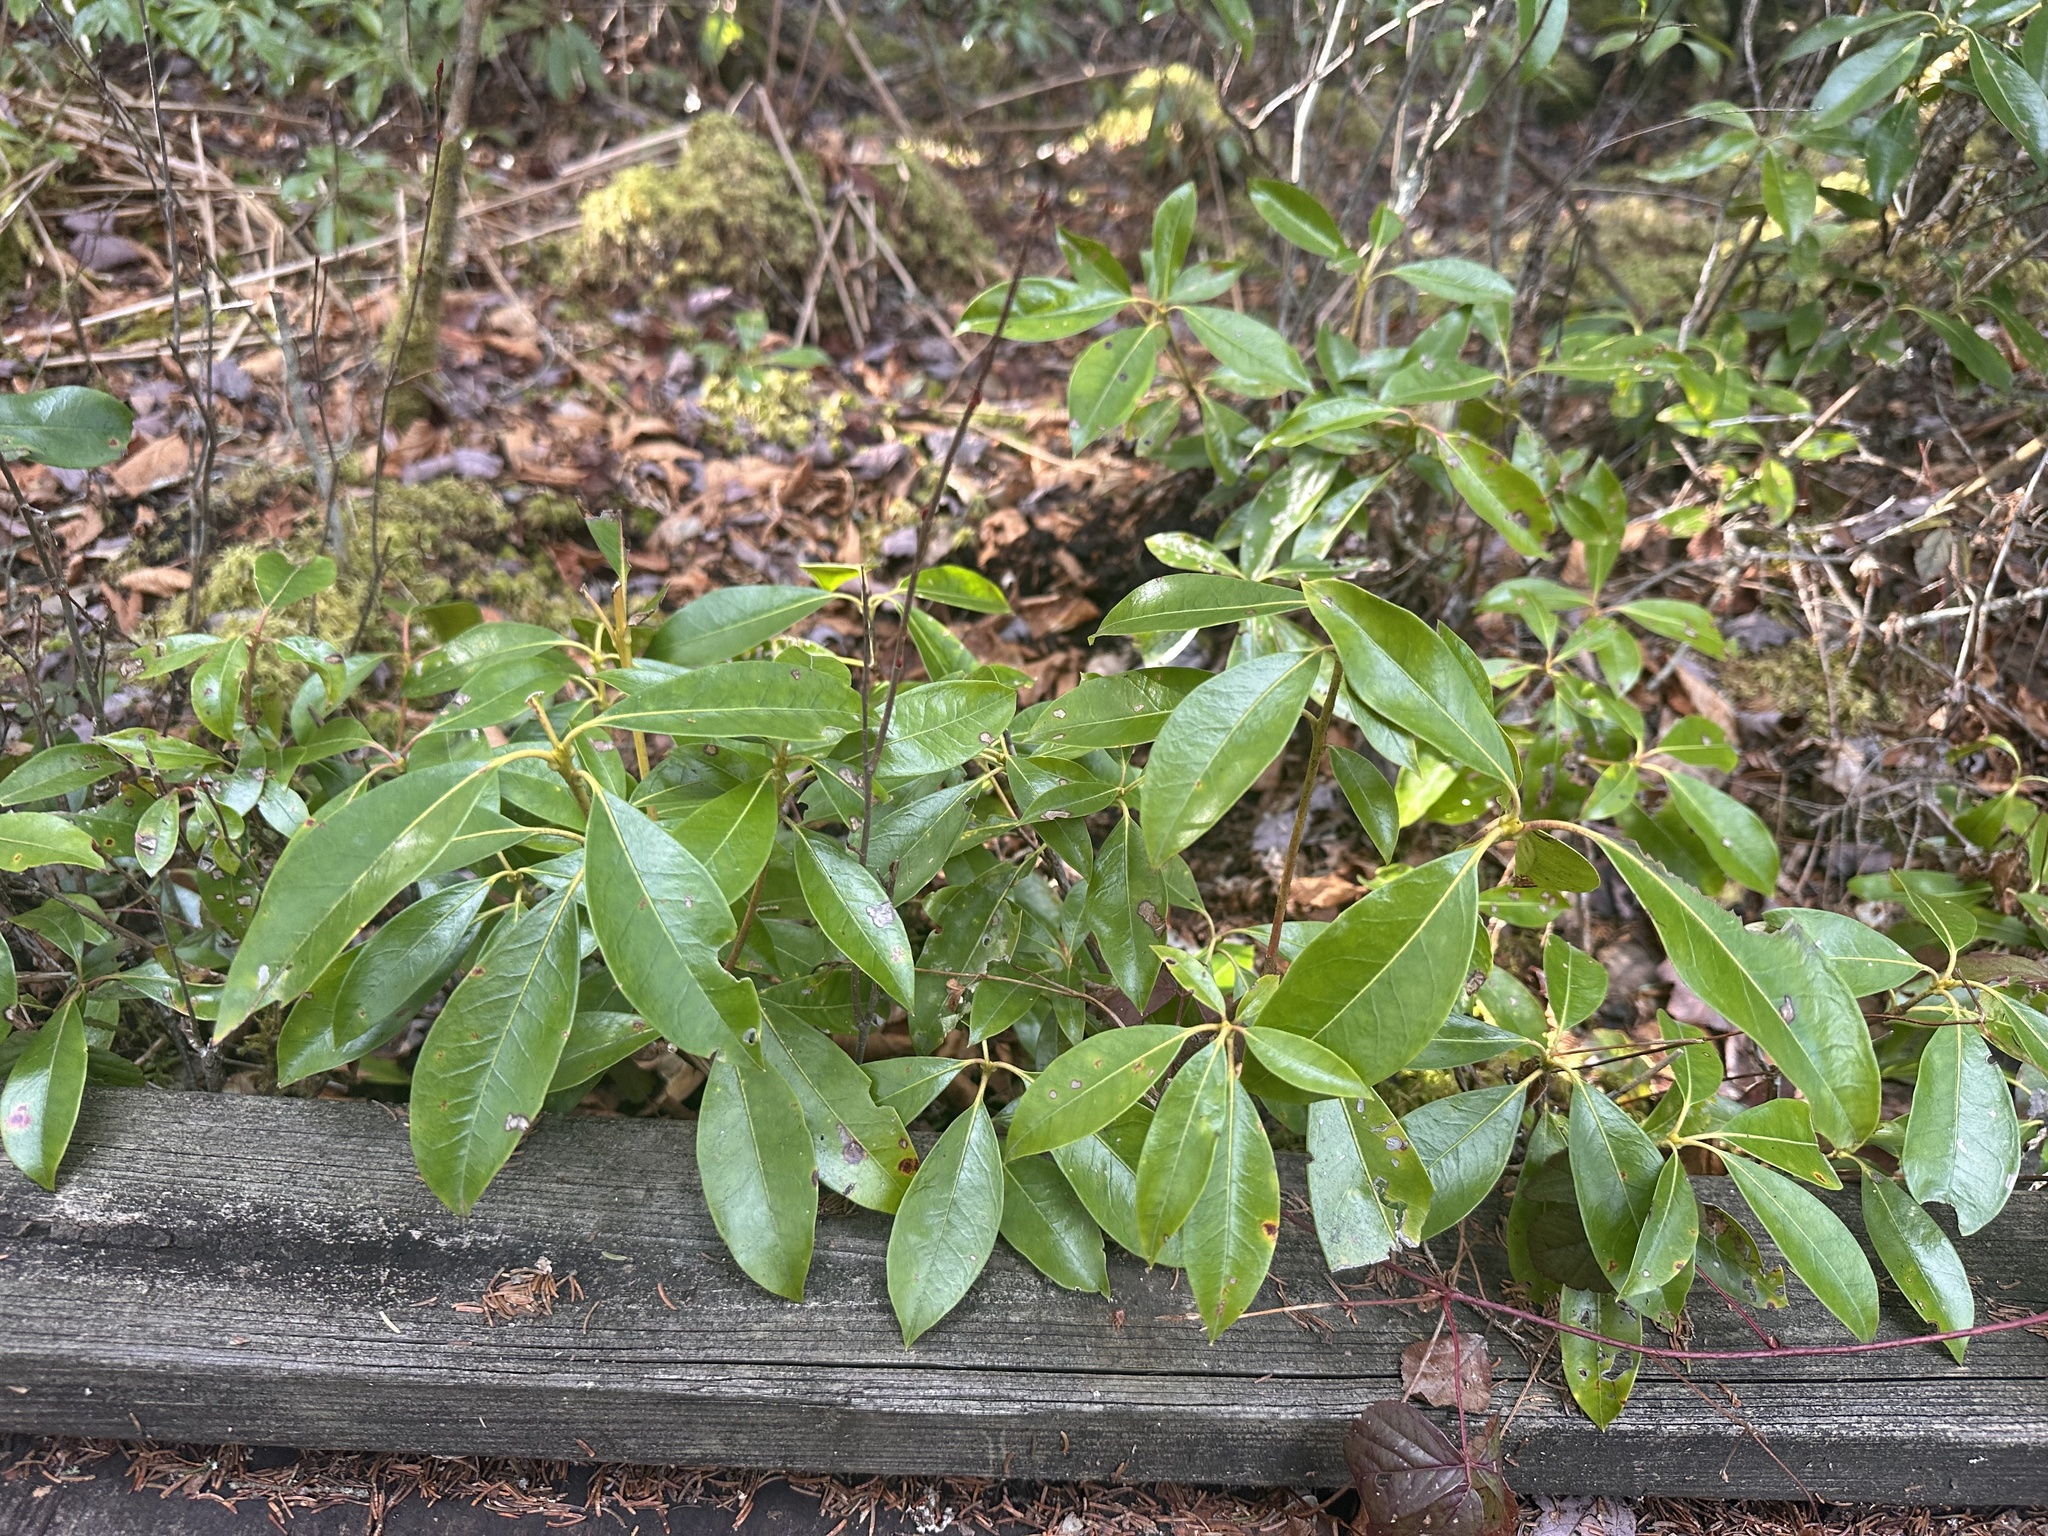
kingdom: Plantae
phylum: Tracheophyta
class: Magnoliopsida
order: Ericales
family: Ericaceae
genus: Kalmia
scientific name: Kalmia latifolia
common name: Mountain-laurel
